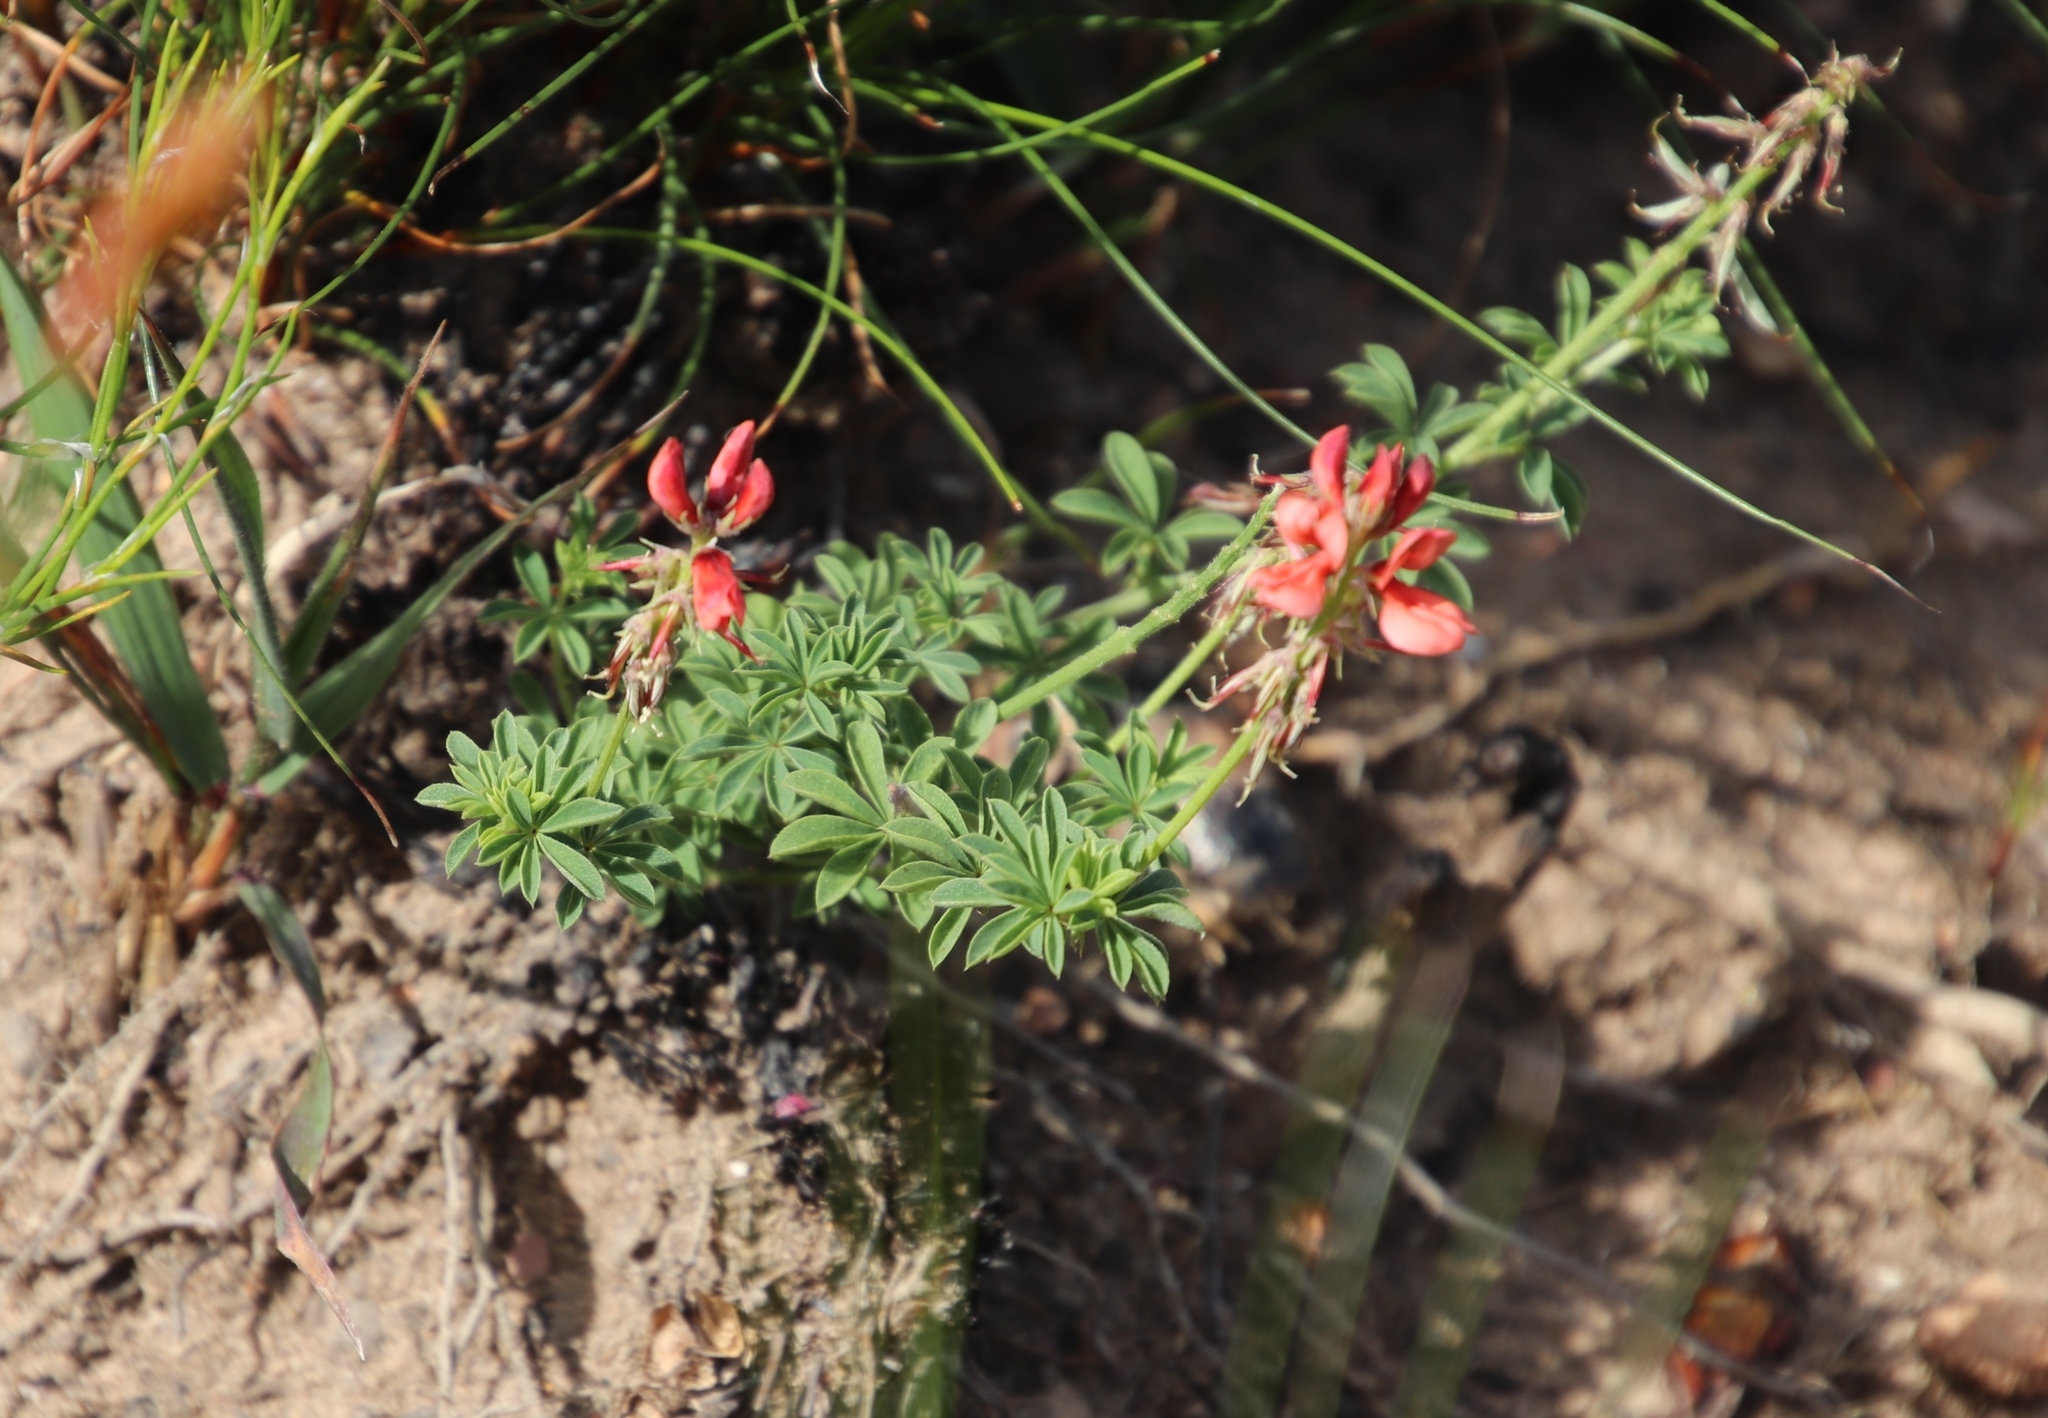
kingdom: Plantae
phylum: Tracheophyta
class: Magnoliopsida
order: Fabales
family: Fabaceae
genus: Indigofera
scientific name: Indigofera digitata
